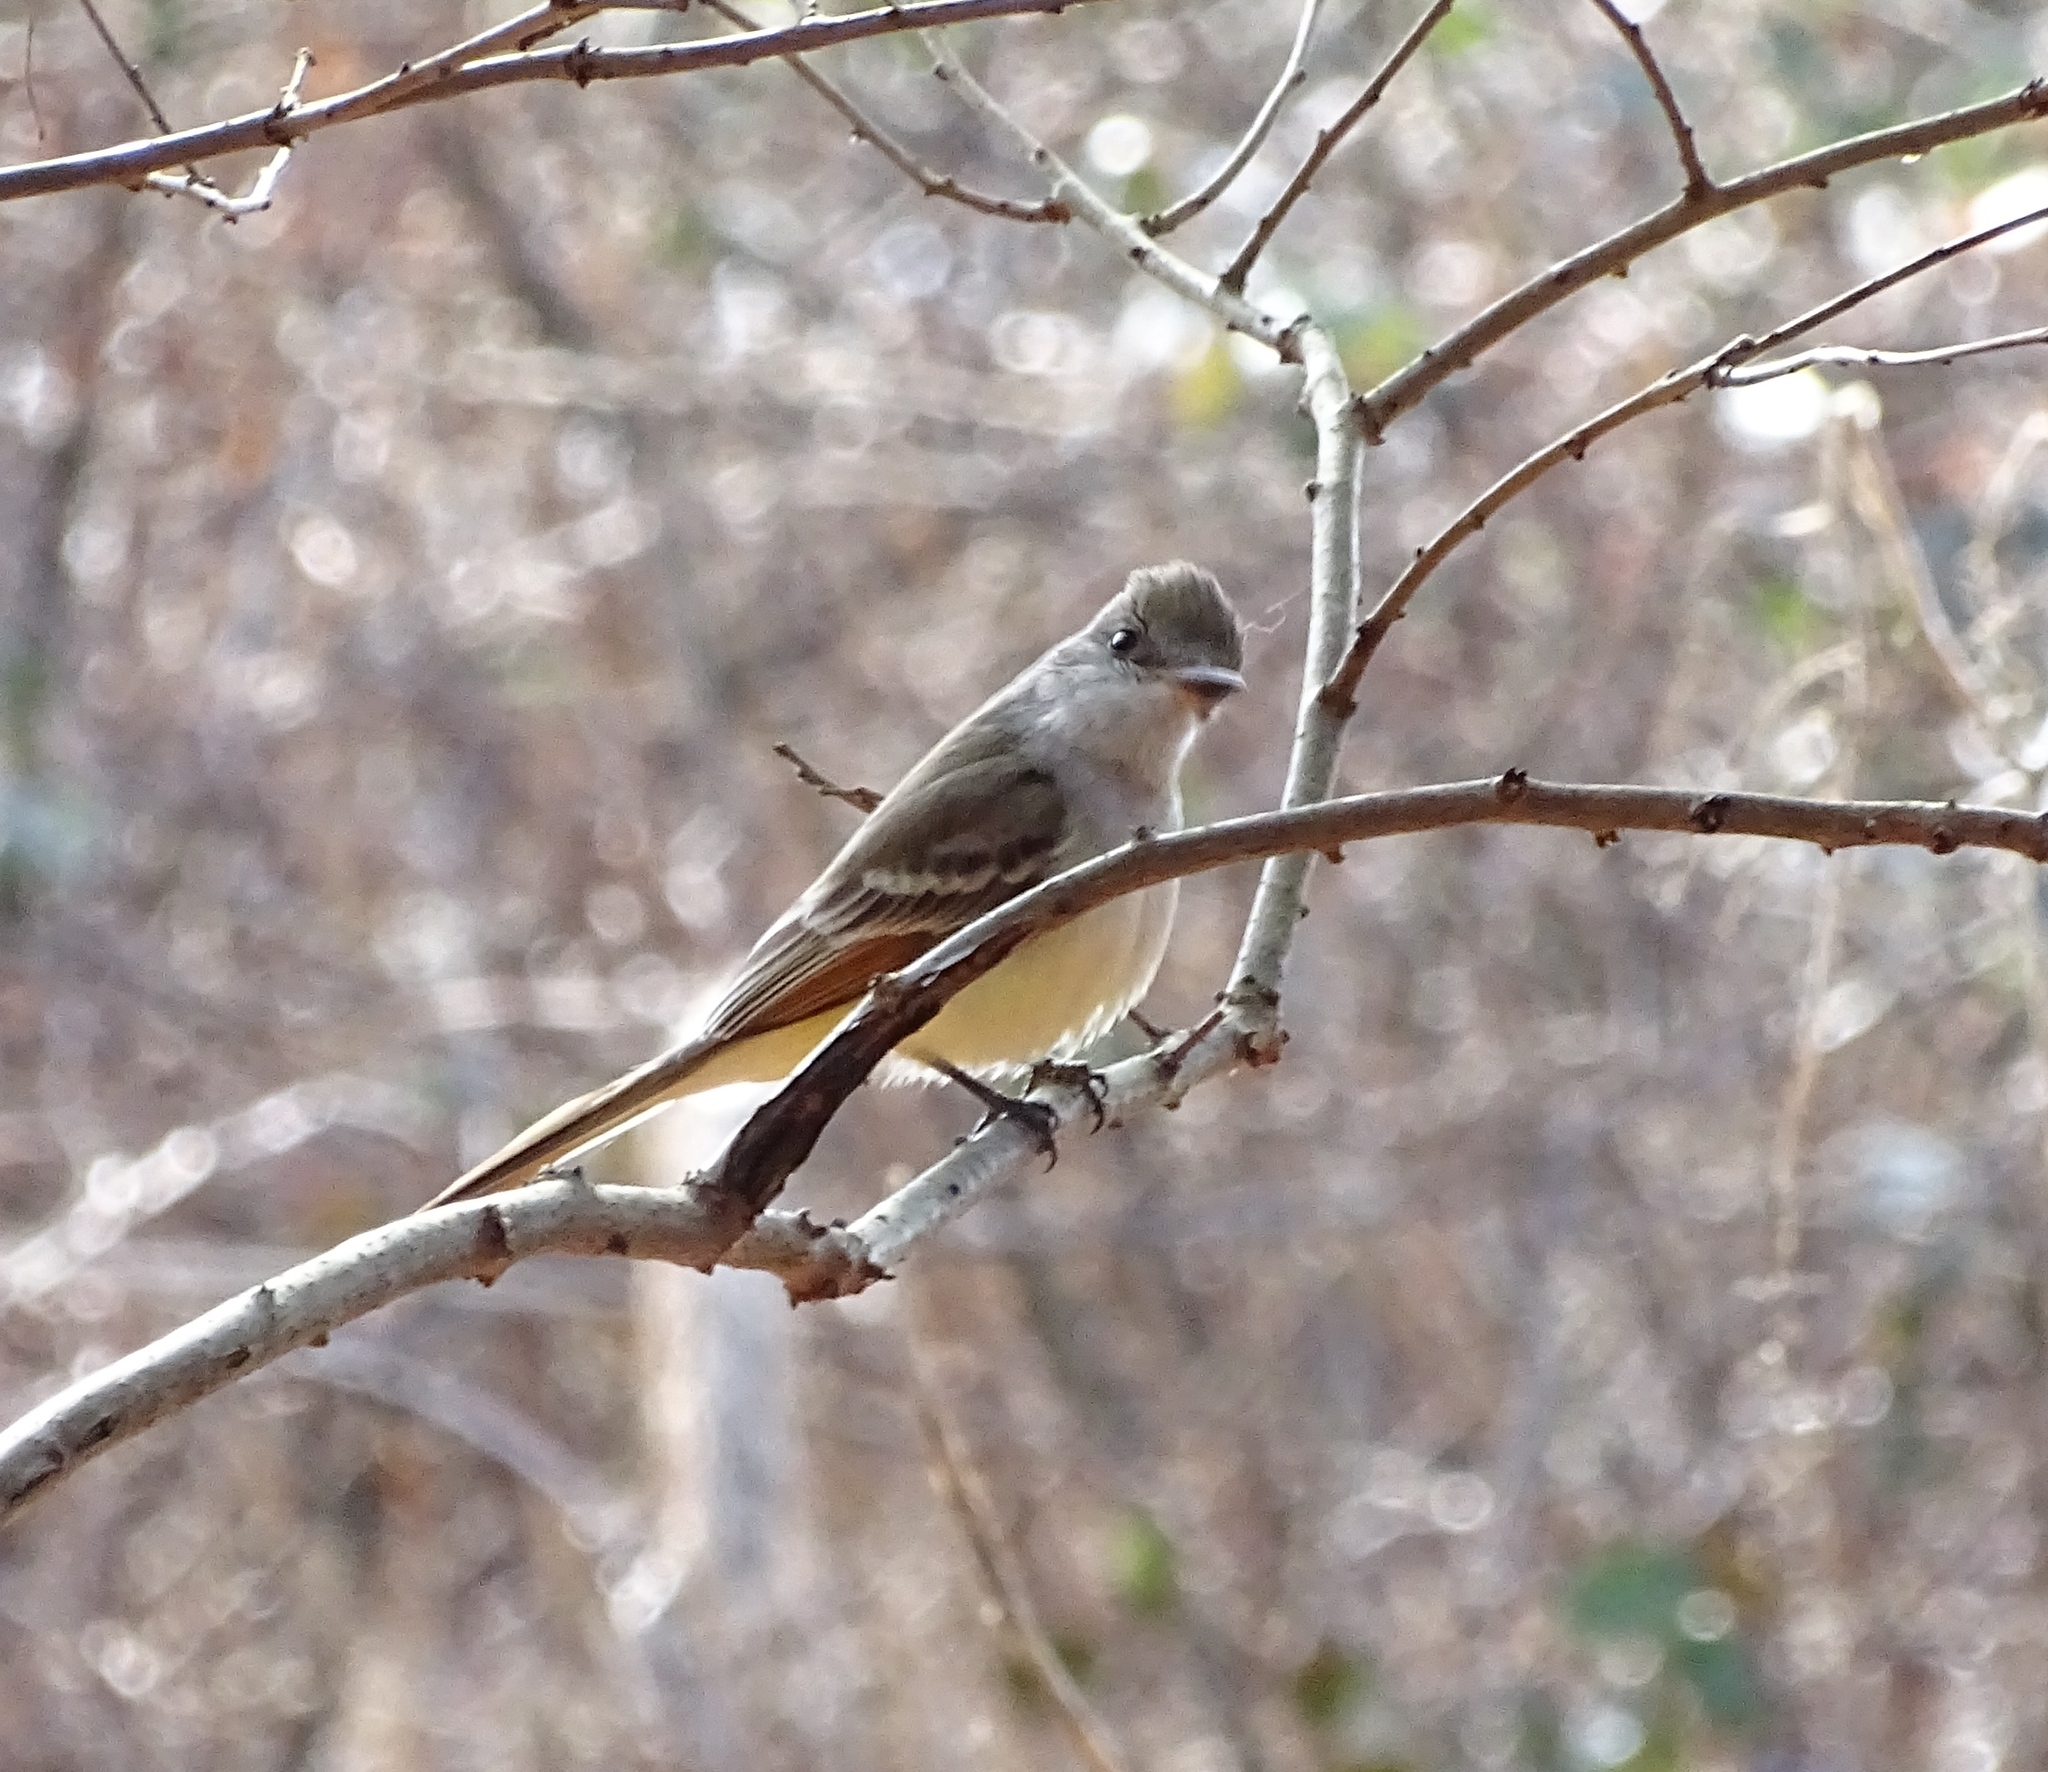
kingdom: Animalia
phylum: Chordata
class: Aves
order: Passeriformes
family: Tyrannidae
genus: Myiarchus
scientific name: Myiarchus cinerascens
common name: Ash-throated flycatcher
